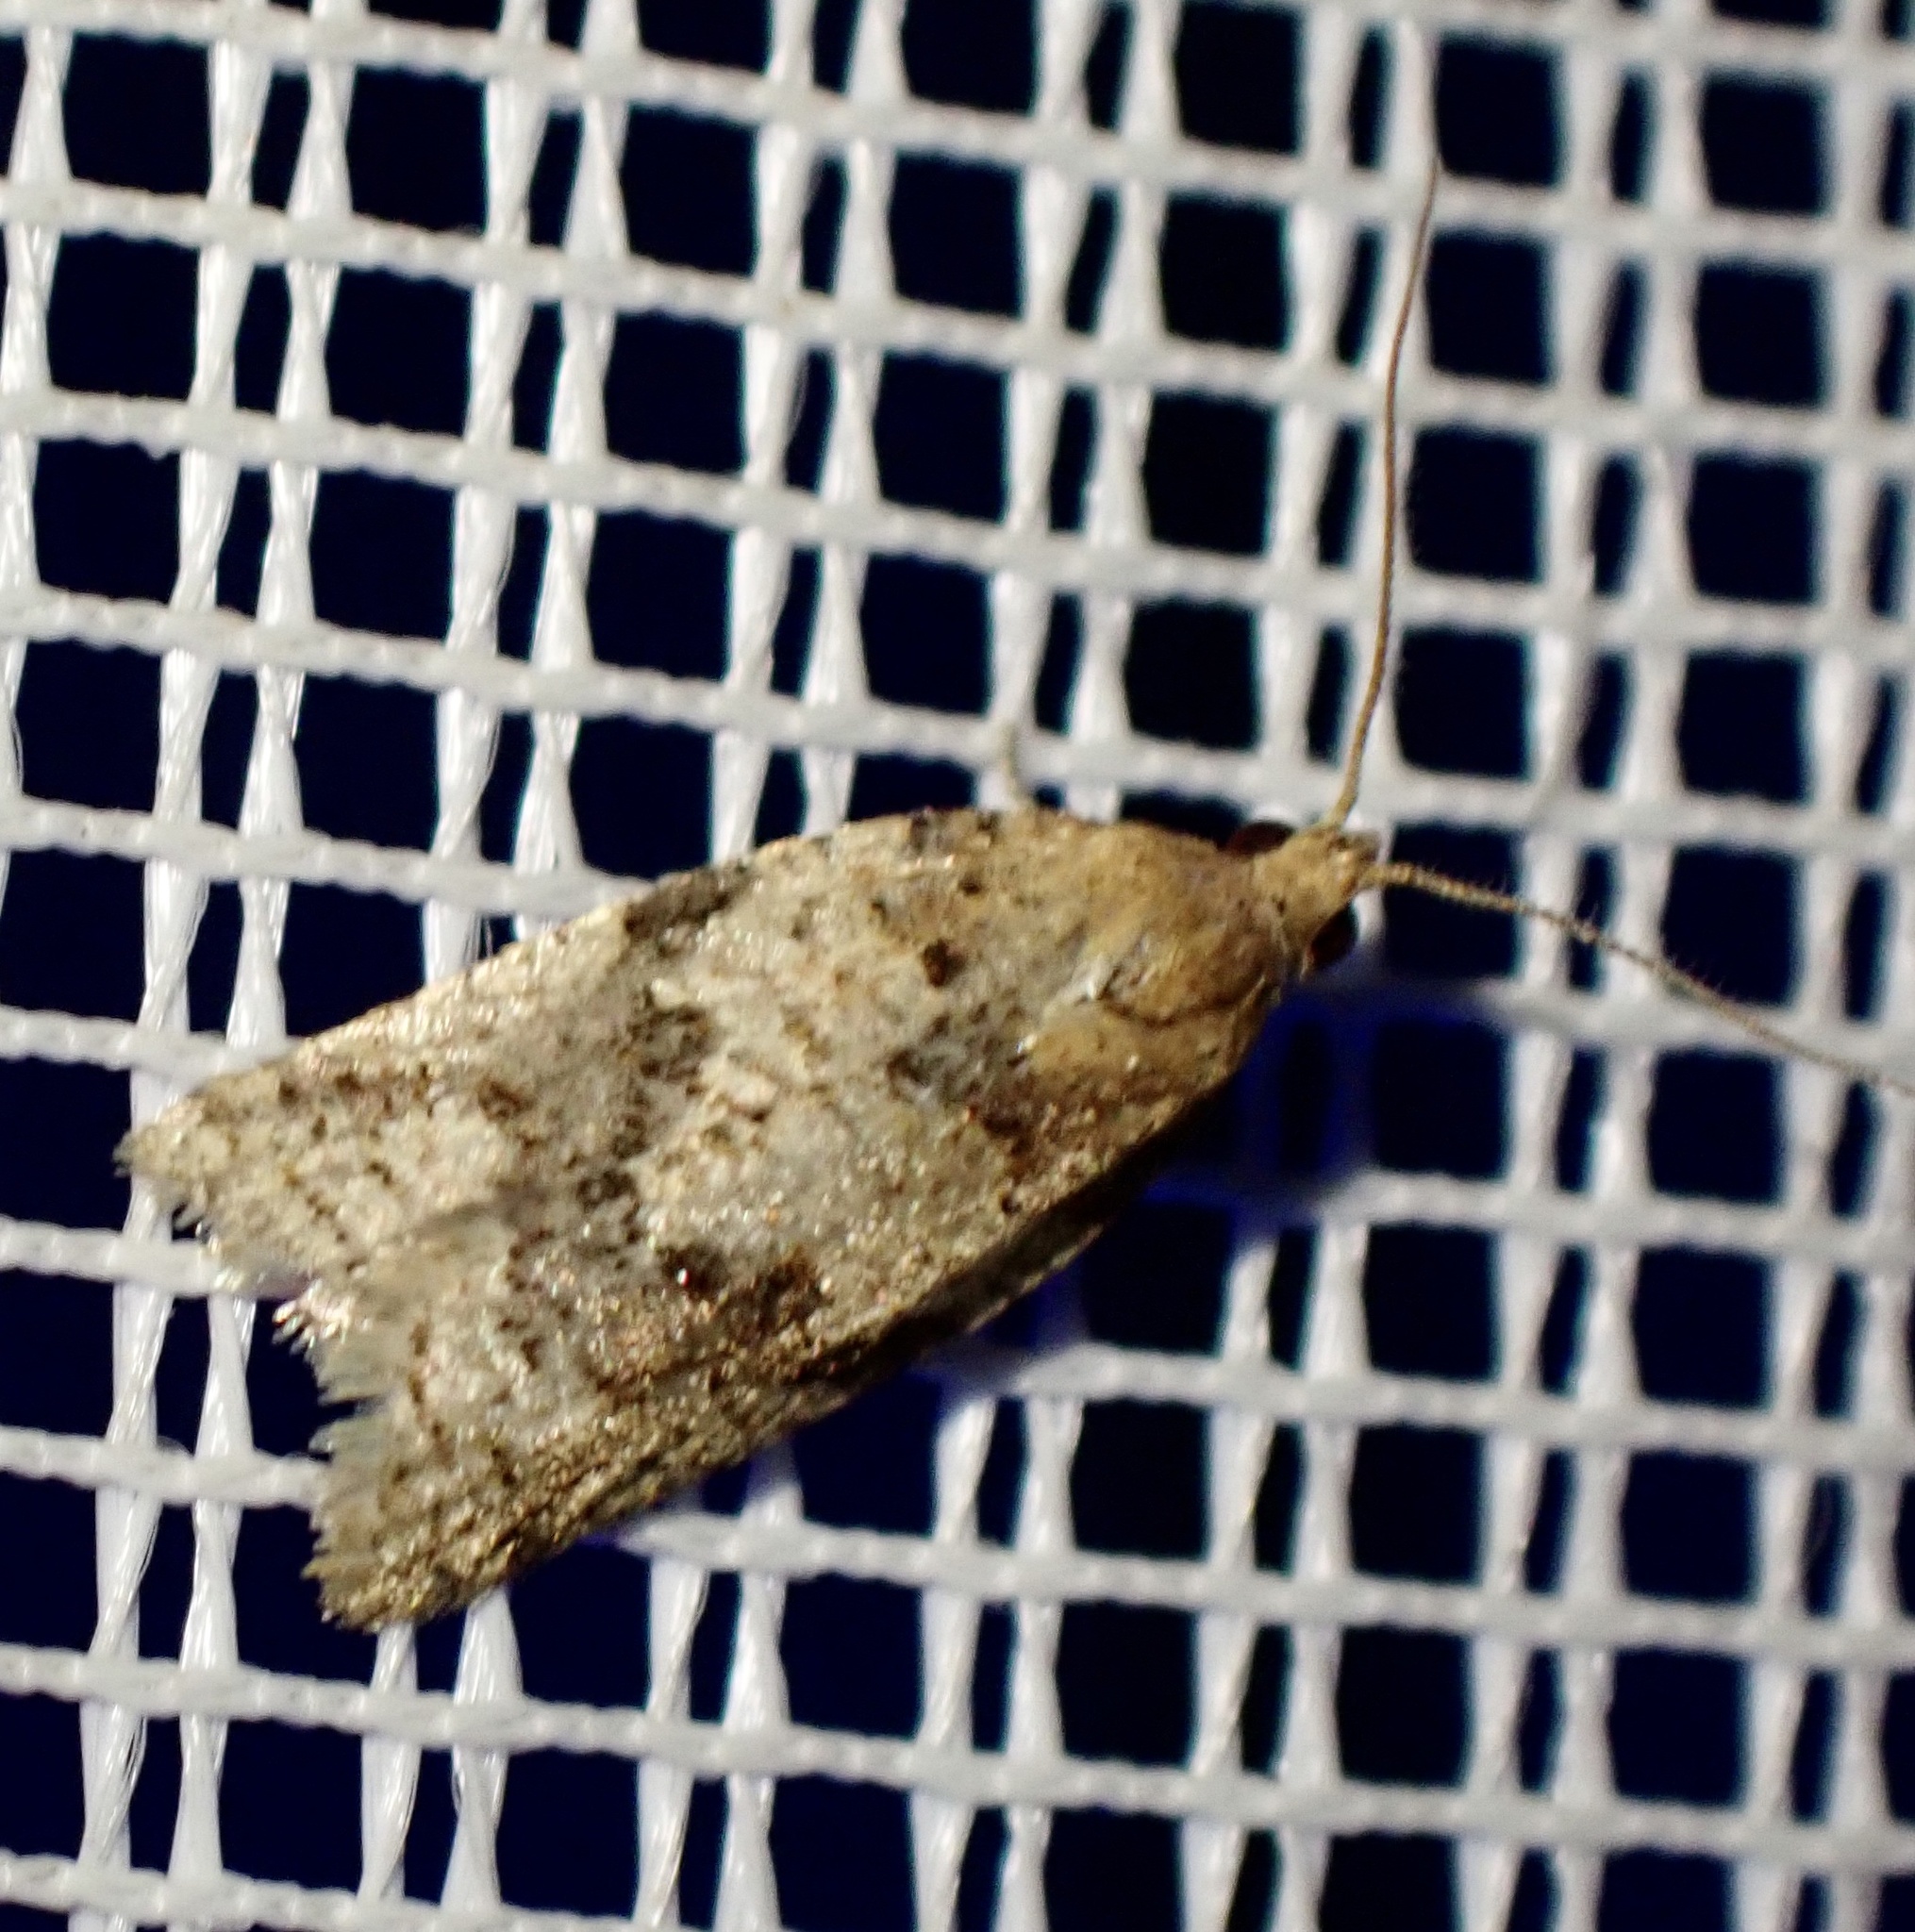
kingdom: Animalia
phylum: Arthropoda
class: Insecta
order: Lepidoptera
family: Tortricidae
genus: Clepsis
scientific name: Clepsis canariensis
